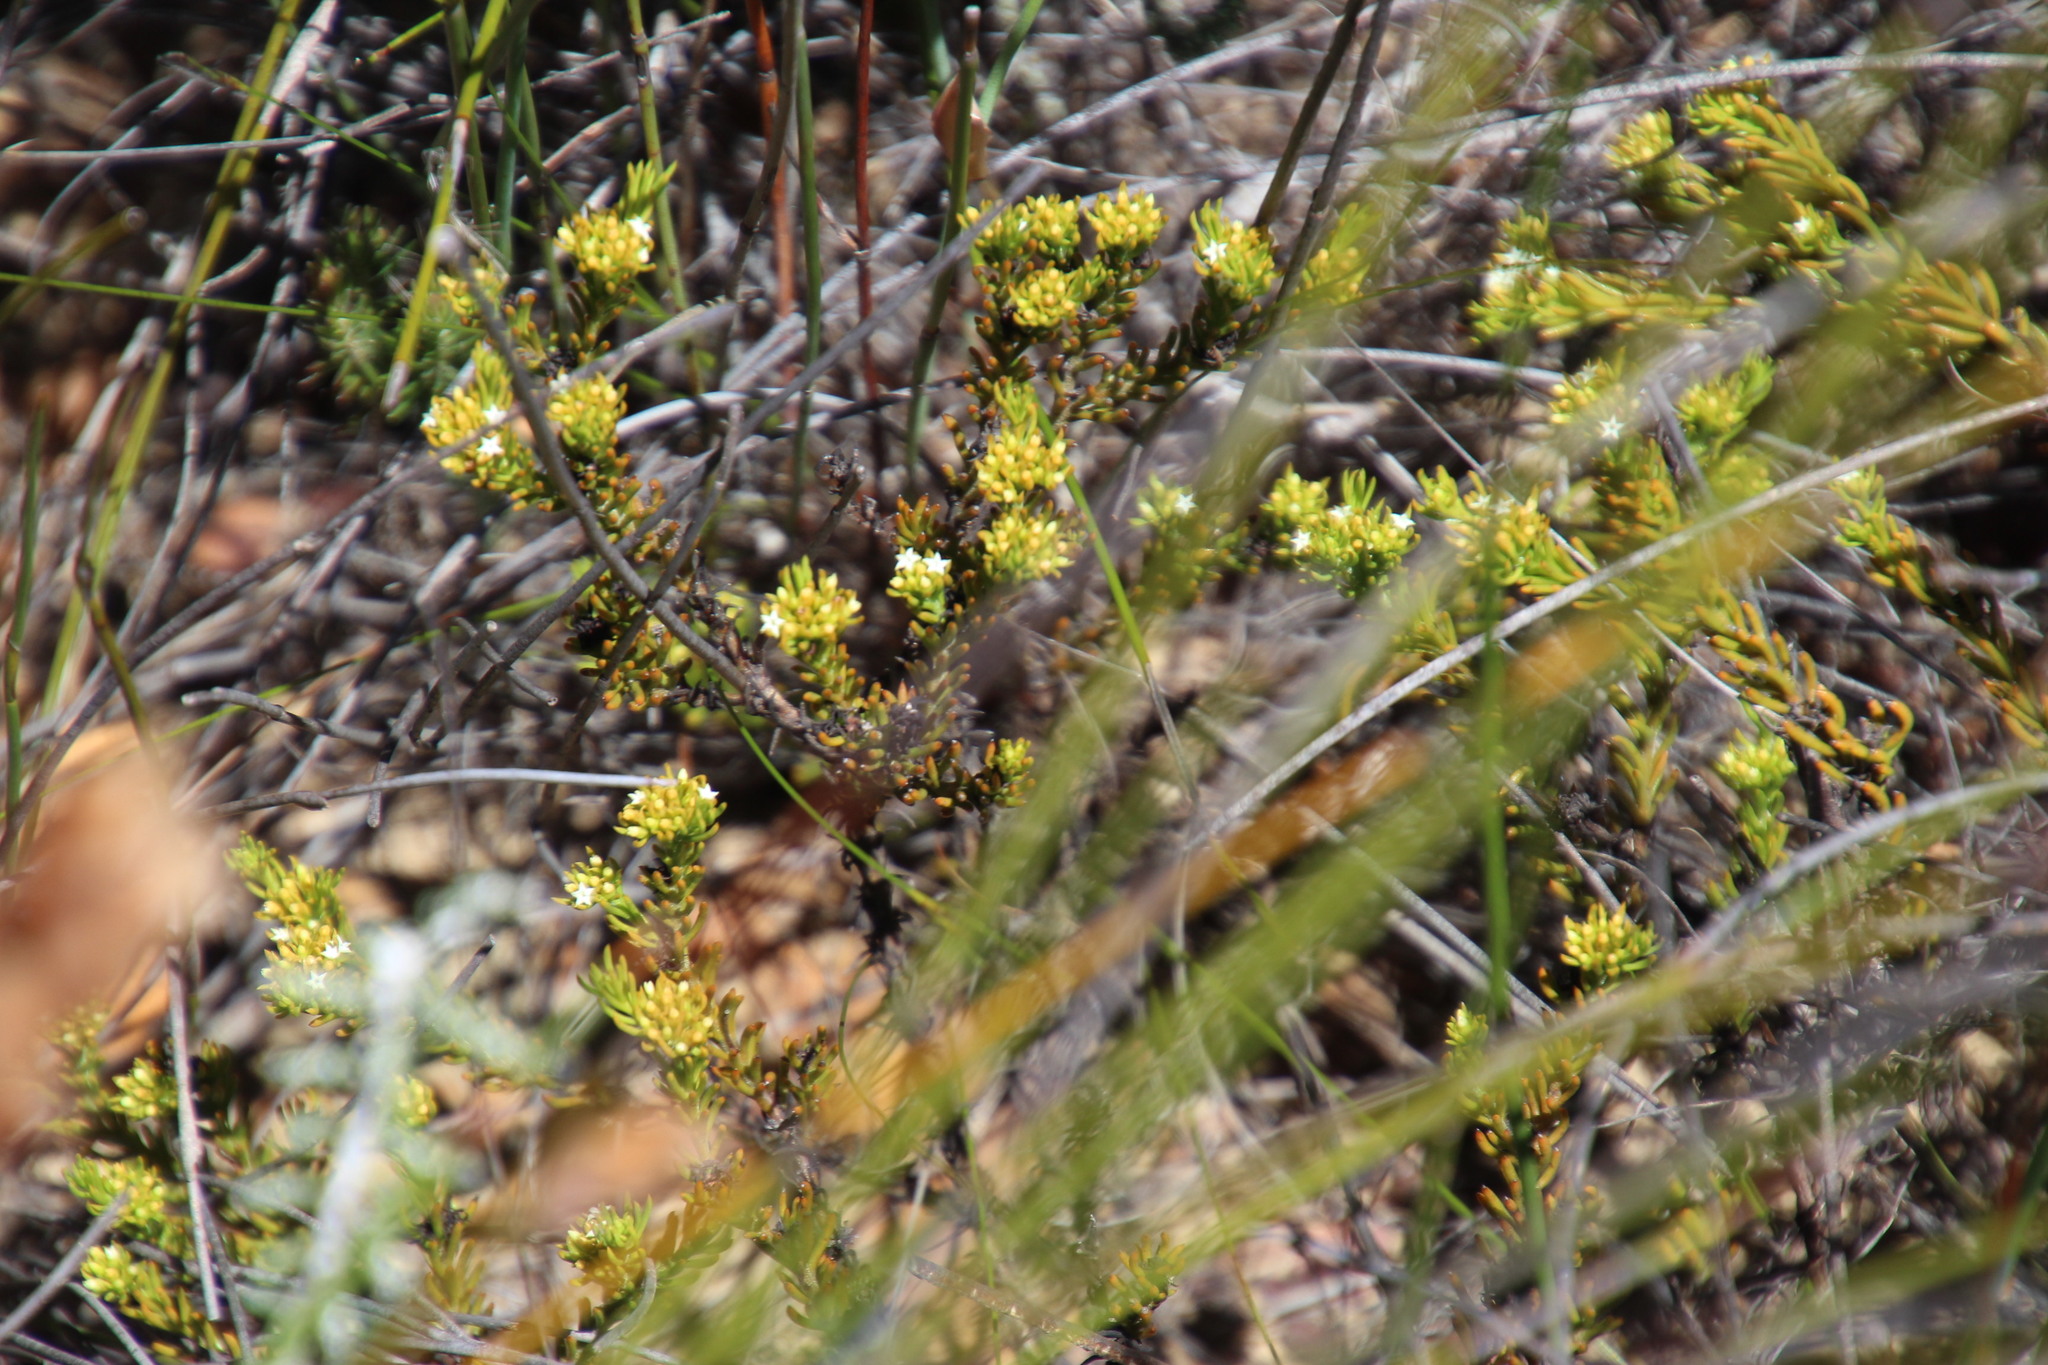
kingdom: Plantae
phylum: Tracheophyta
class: Magnoliopsida
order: Santalales
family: Thesiaceae
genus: Thesium
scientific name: Thesium capitatum
